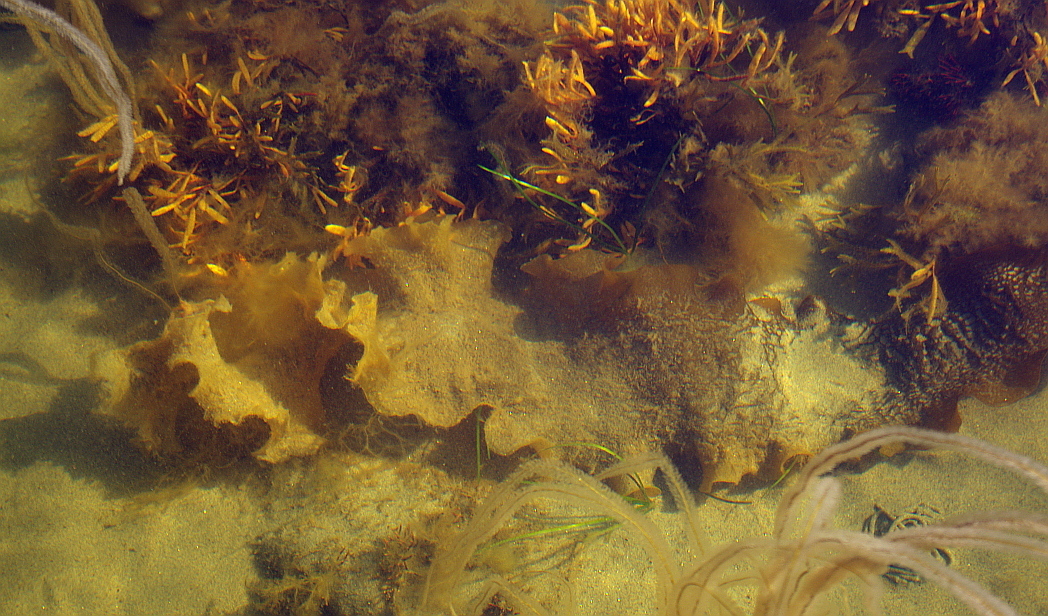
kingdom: Chromista
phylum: Ochrophyta
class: Phaeophyceae
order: Laminariales
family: Laminariaceae
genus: Saccharina
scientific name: Saccharina latissima
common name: Poor man's weather glass
